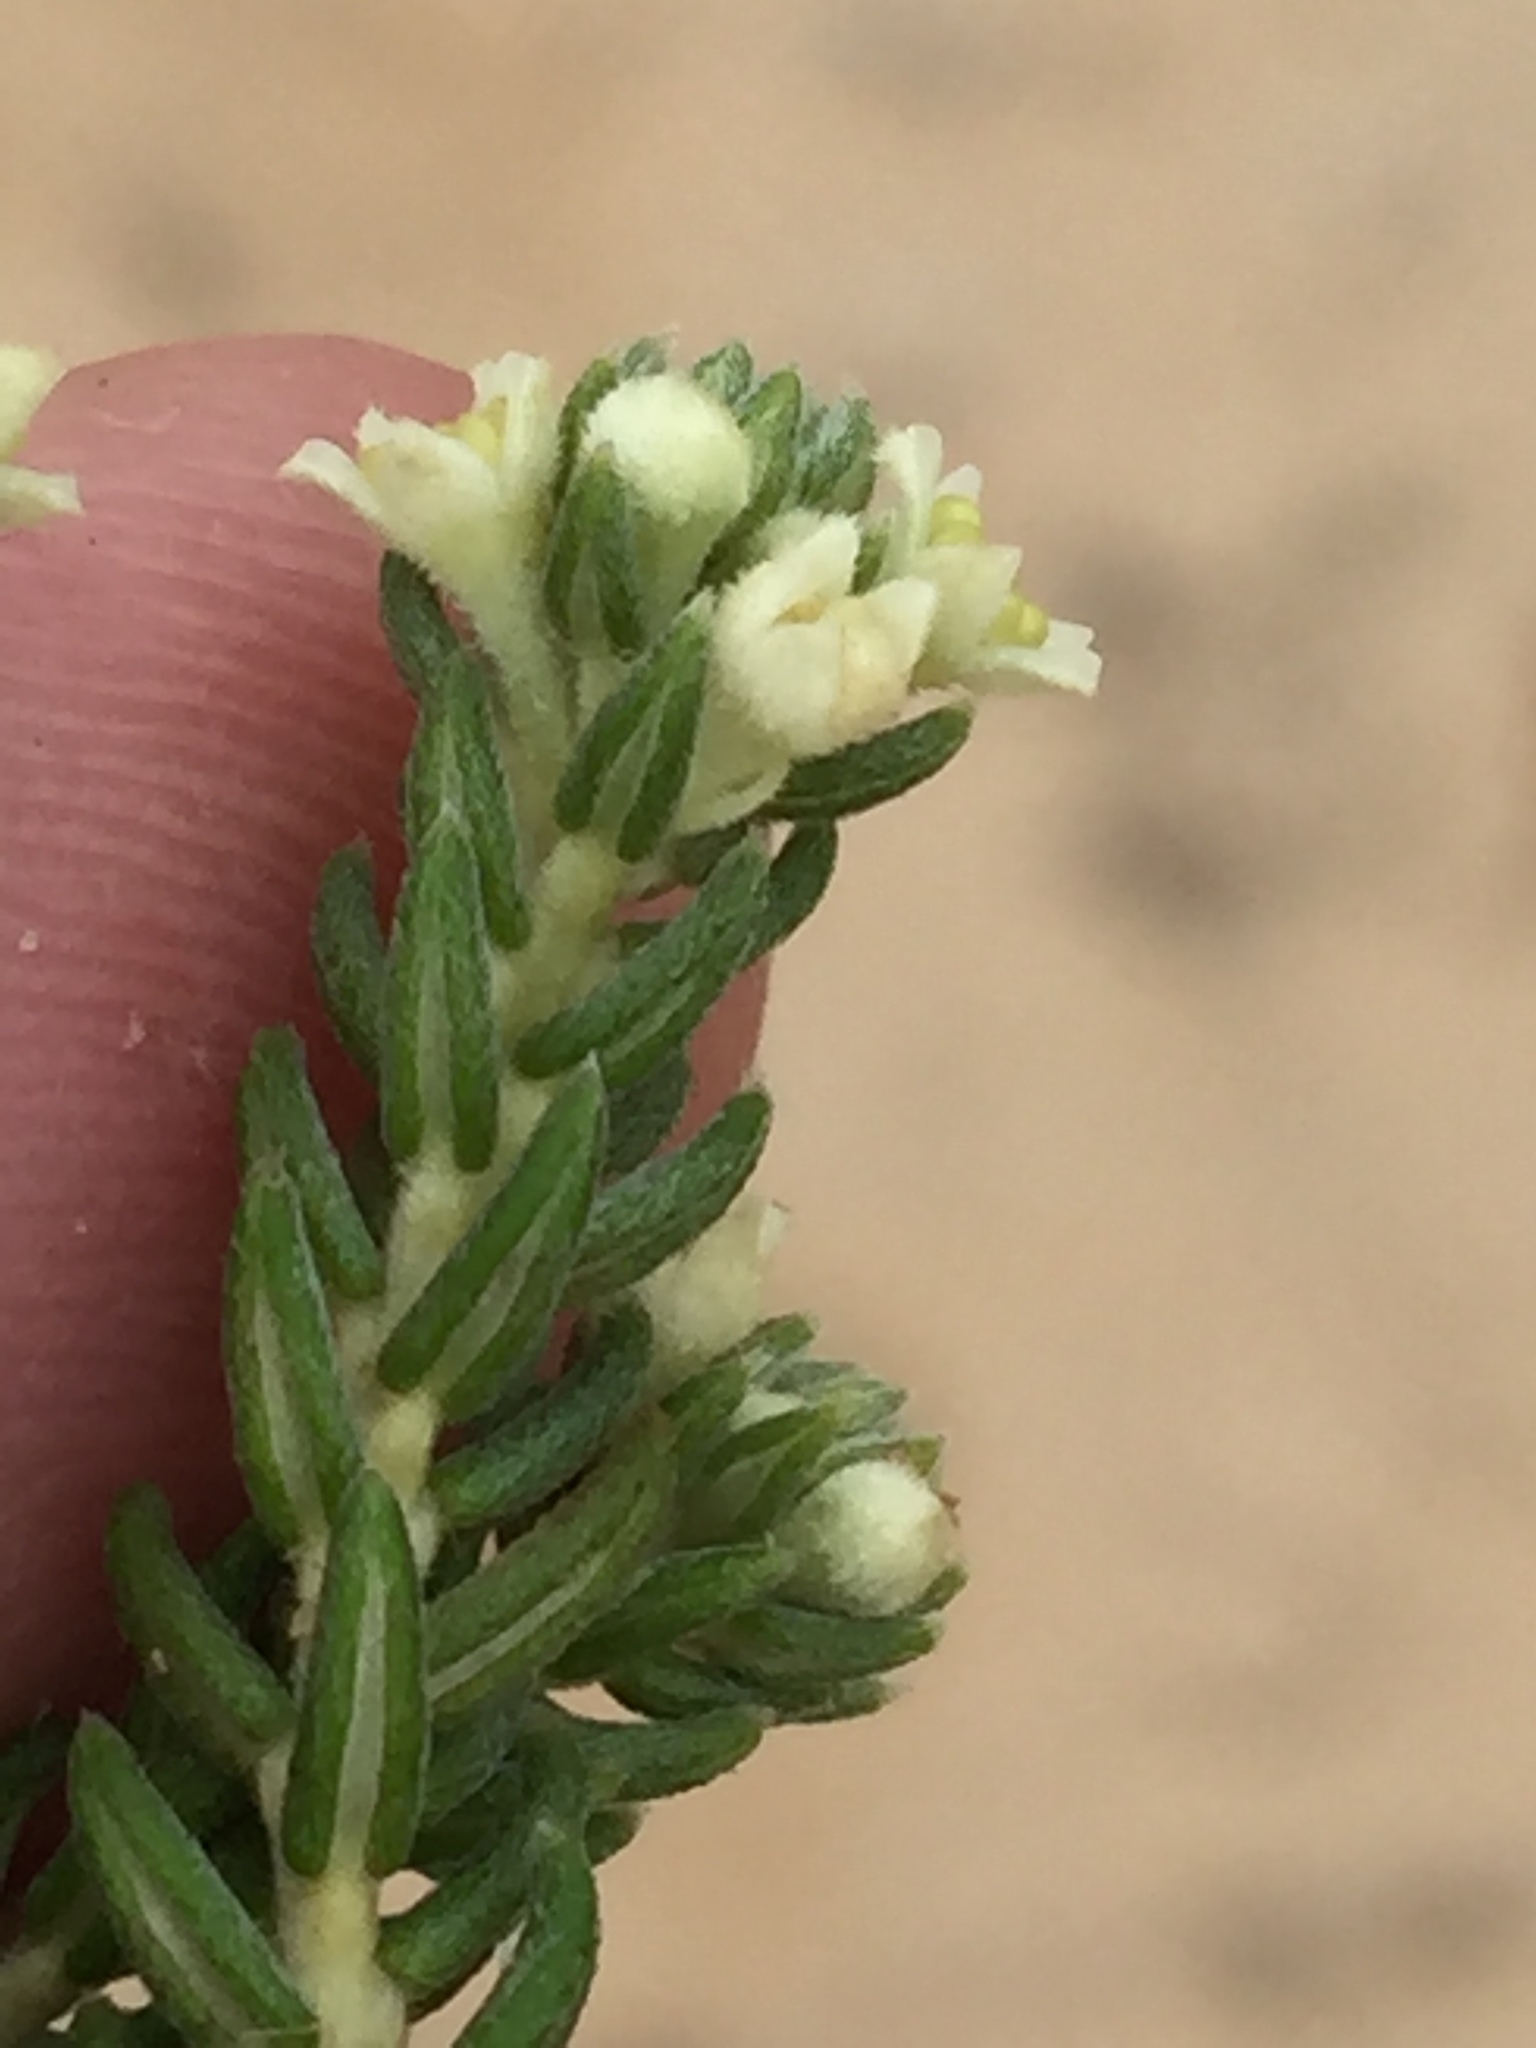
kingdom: Plantae
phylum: Tracheophyta
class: Magnoliopsida
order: Rosales
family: Rhamnaceae
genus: Phylica
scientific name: Phylica axillaris
